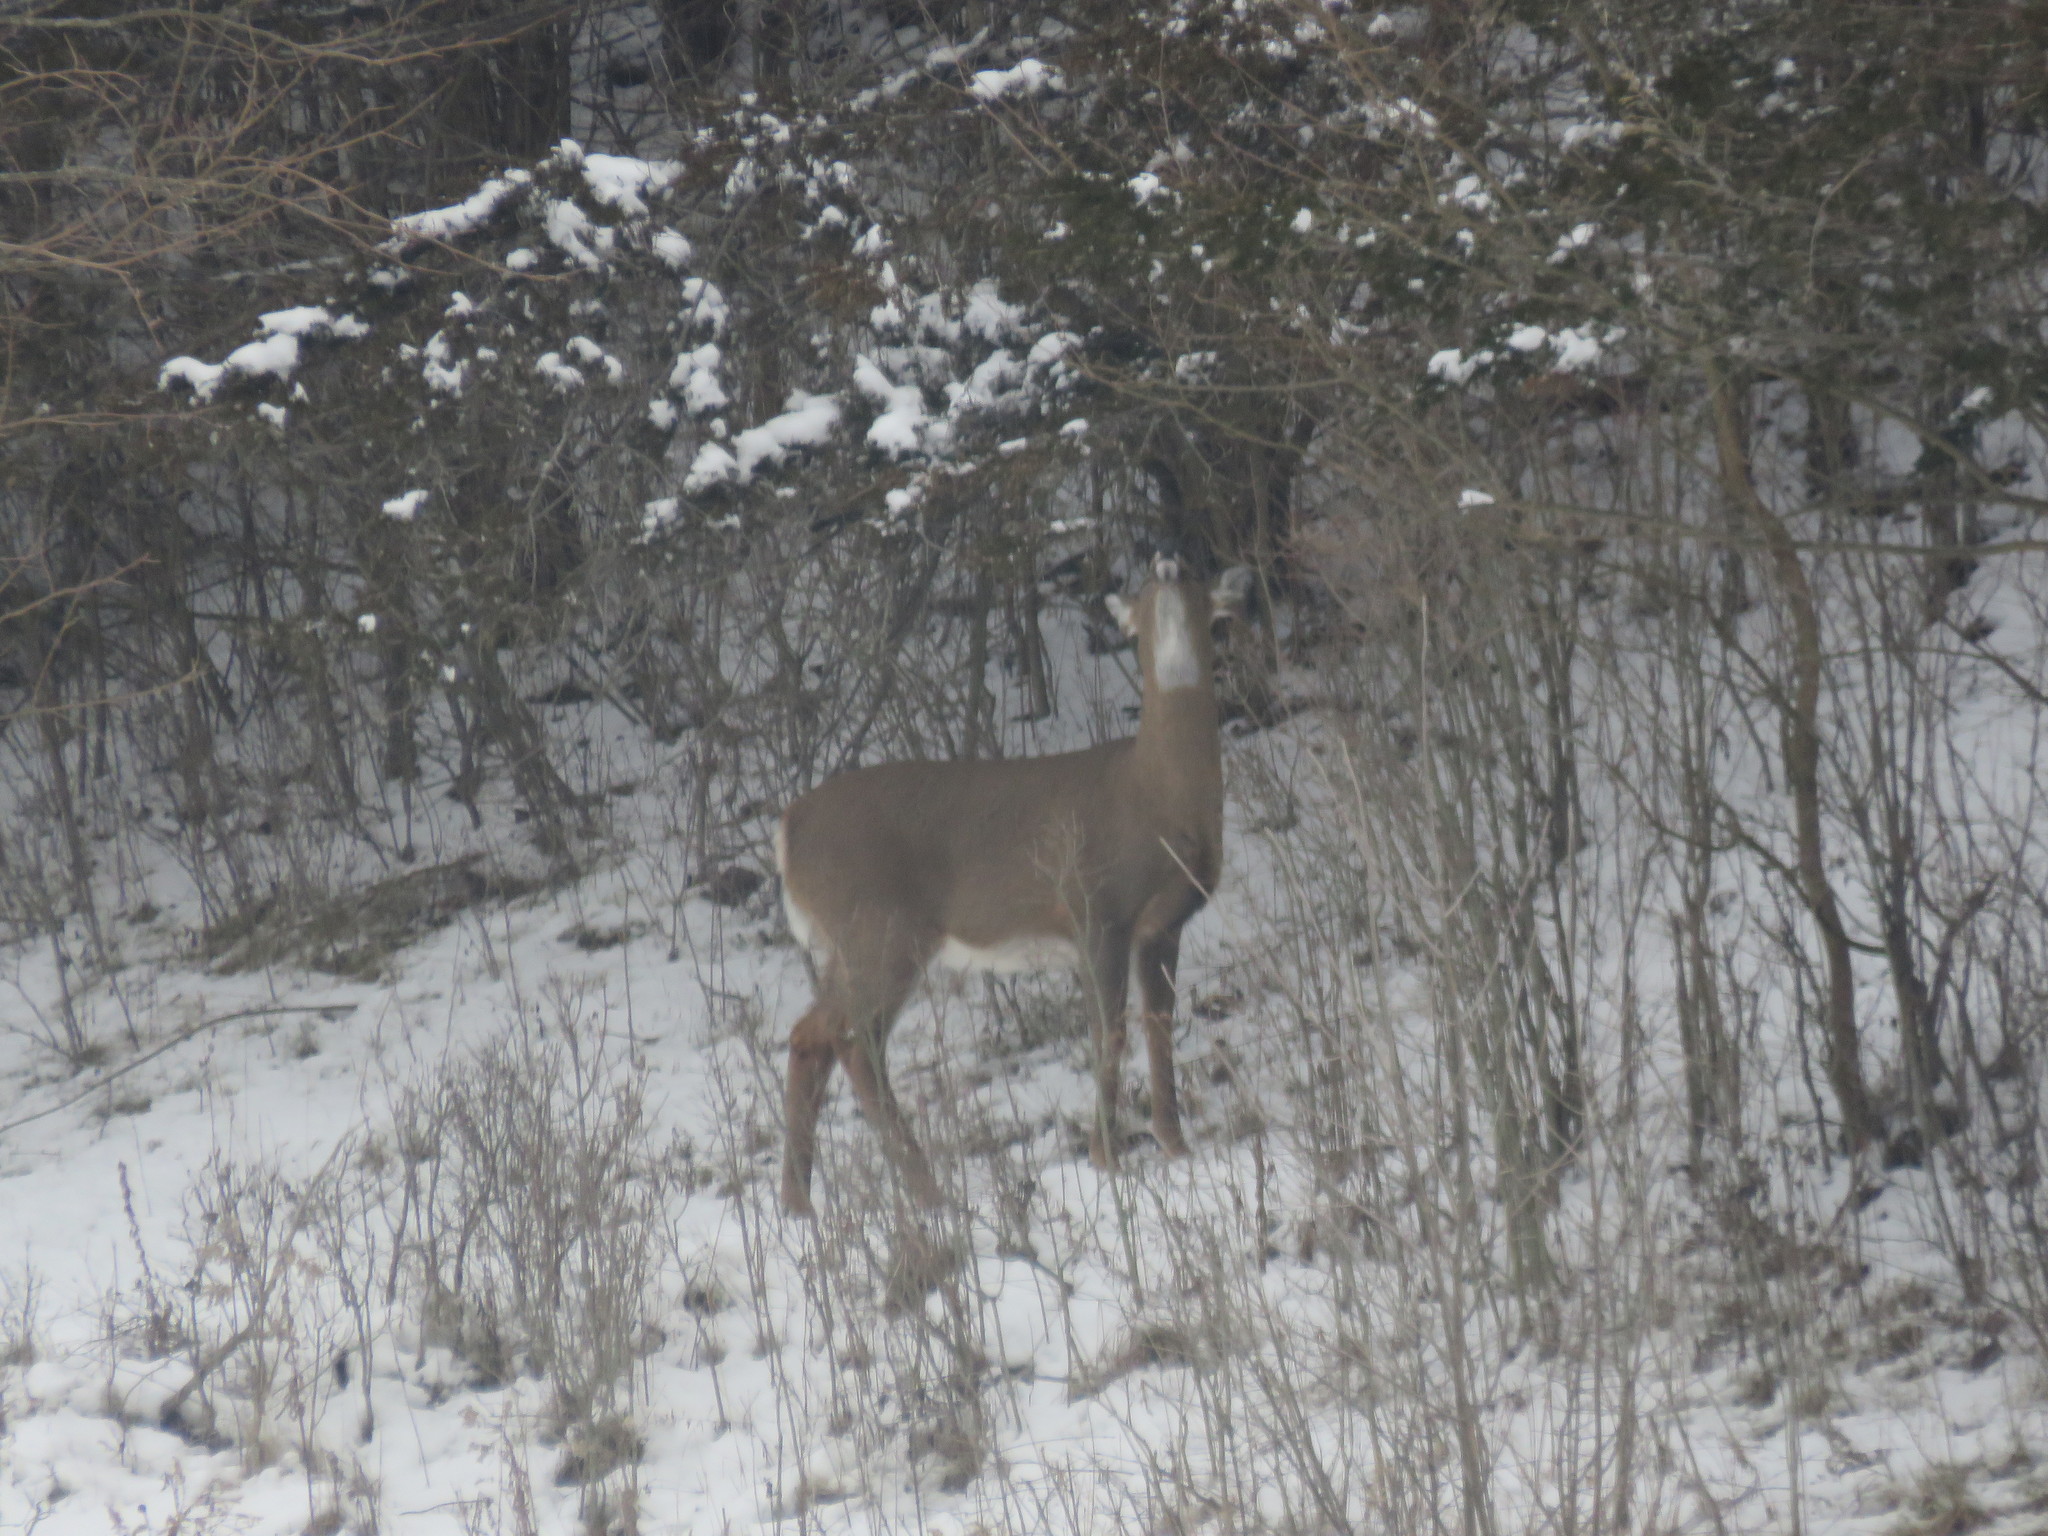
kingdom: Animalia
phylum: Chordata
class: Mammalia
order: Artiodactyla
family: Cervidae
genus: Odocoileus
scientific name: Odocoileus virginianus
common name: White-tailed deer
